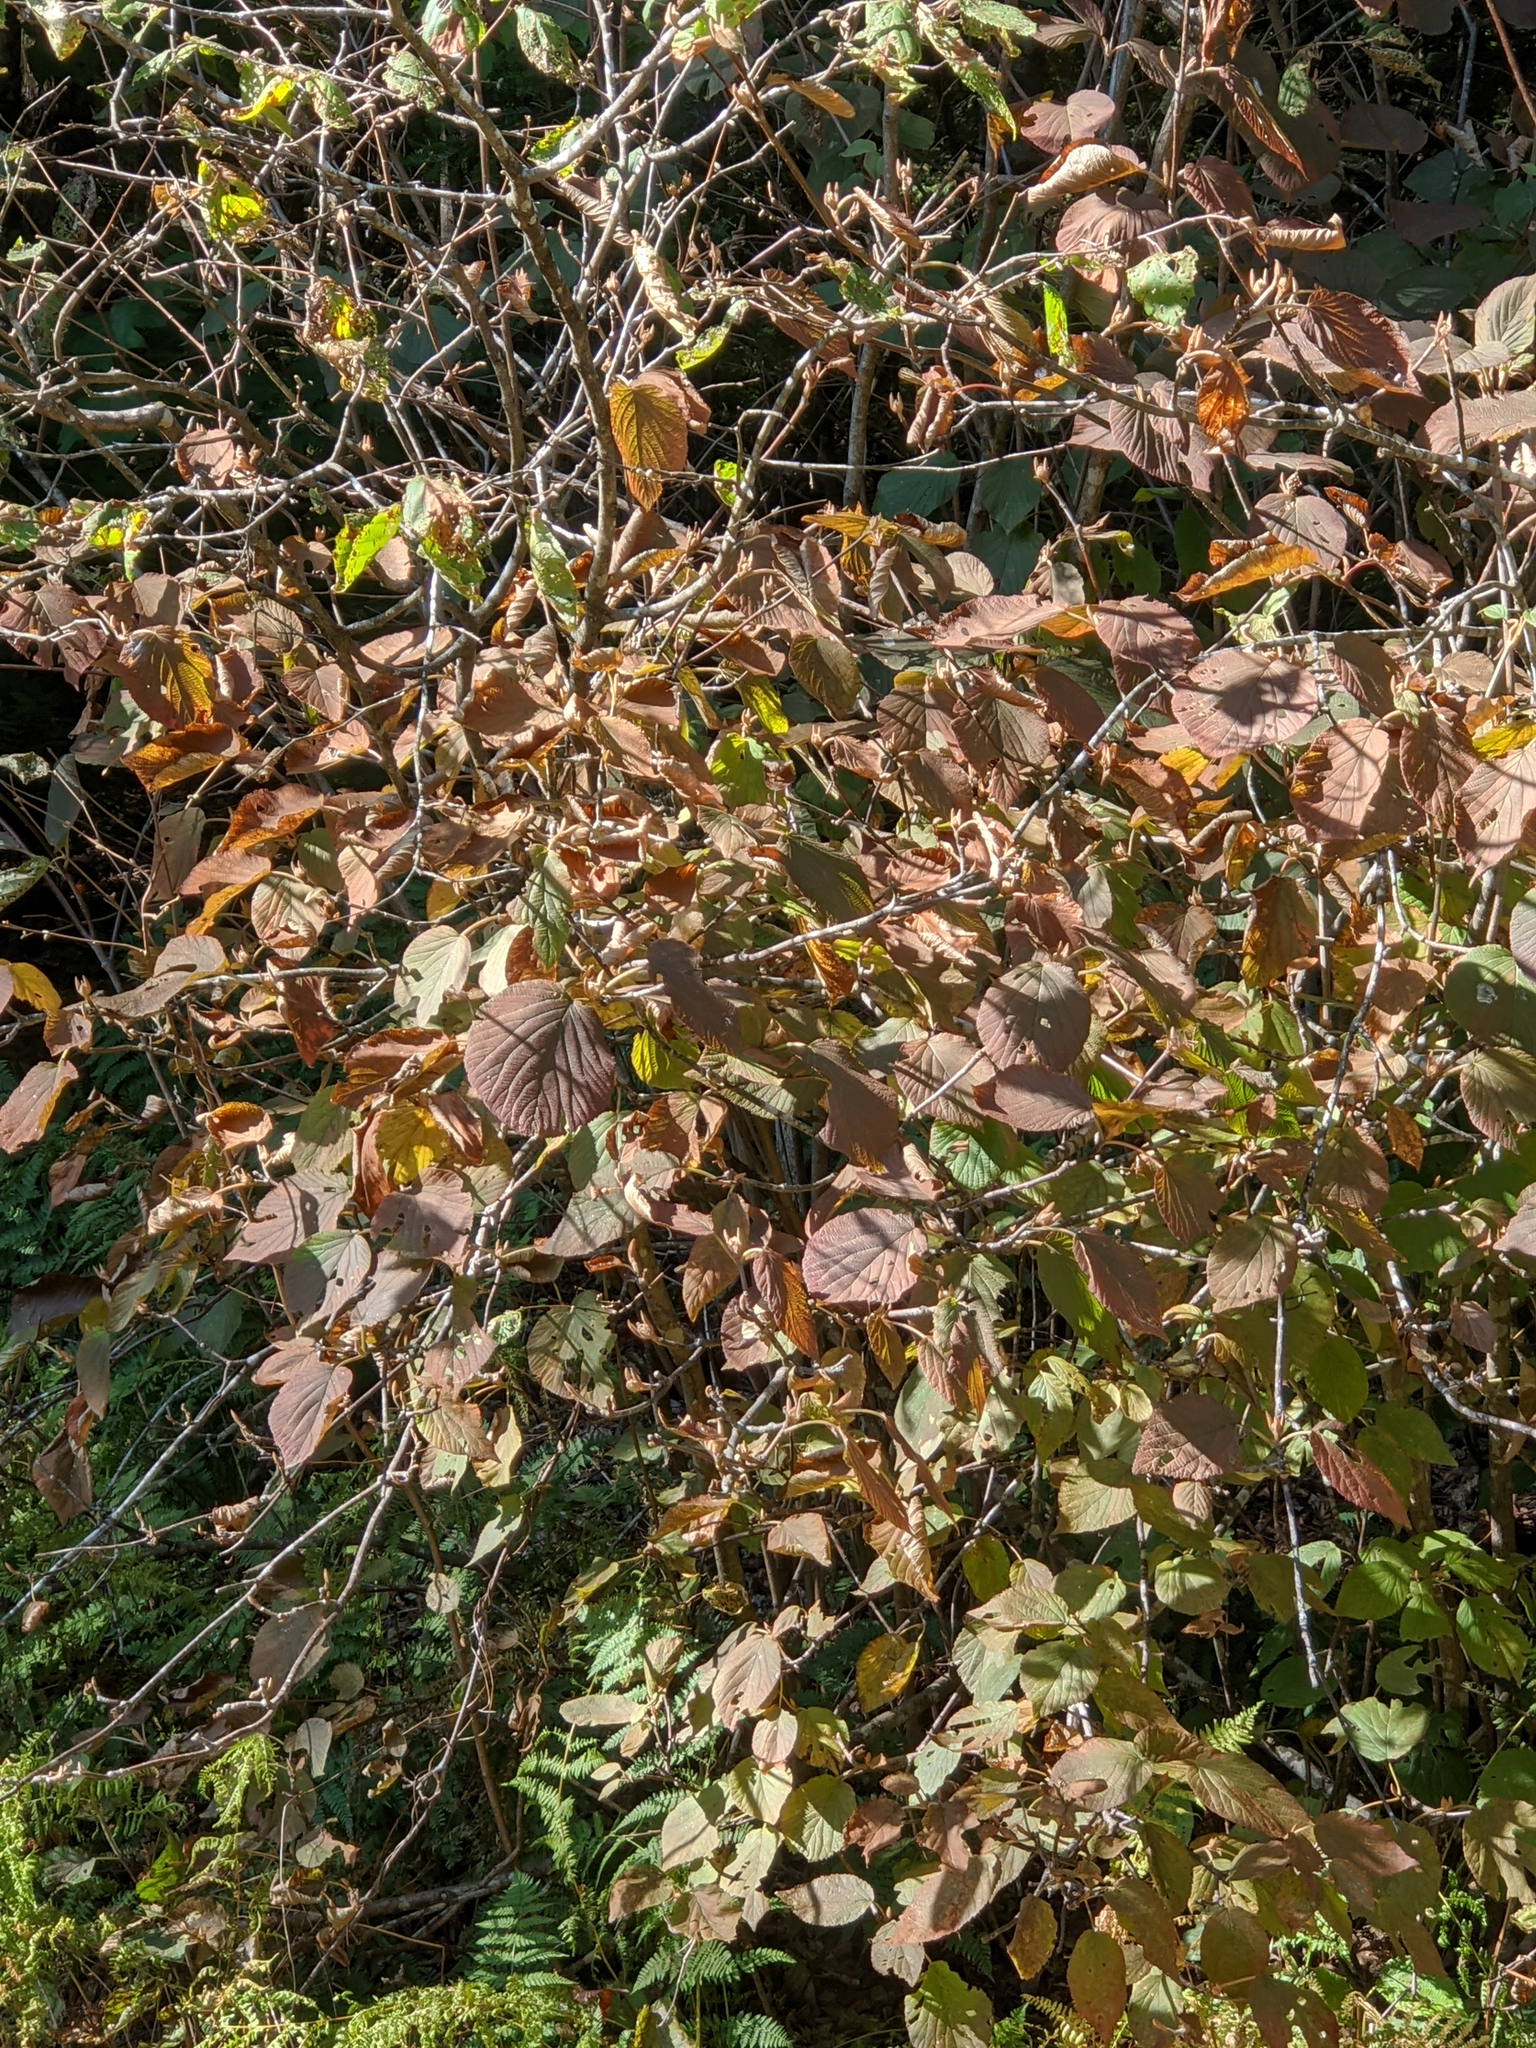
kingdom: Plantae
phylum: Tracheophyta
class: Magnoliopsida
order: Dipsacales
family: Viburnaceae
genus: Viburnum
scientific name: Viburnum lantanoides
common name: Hobblebush
